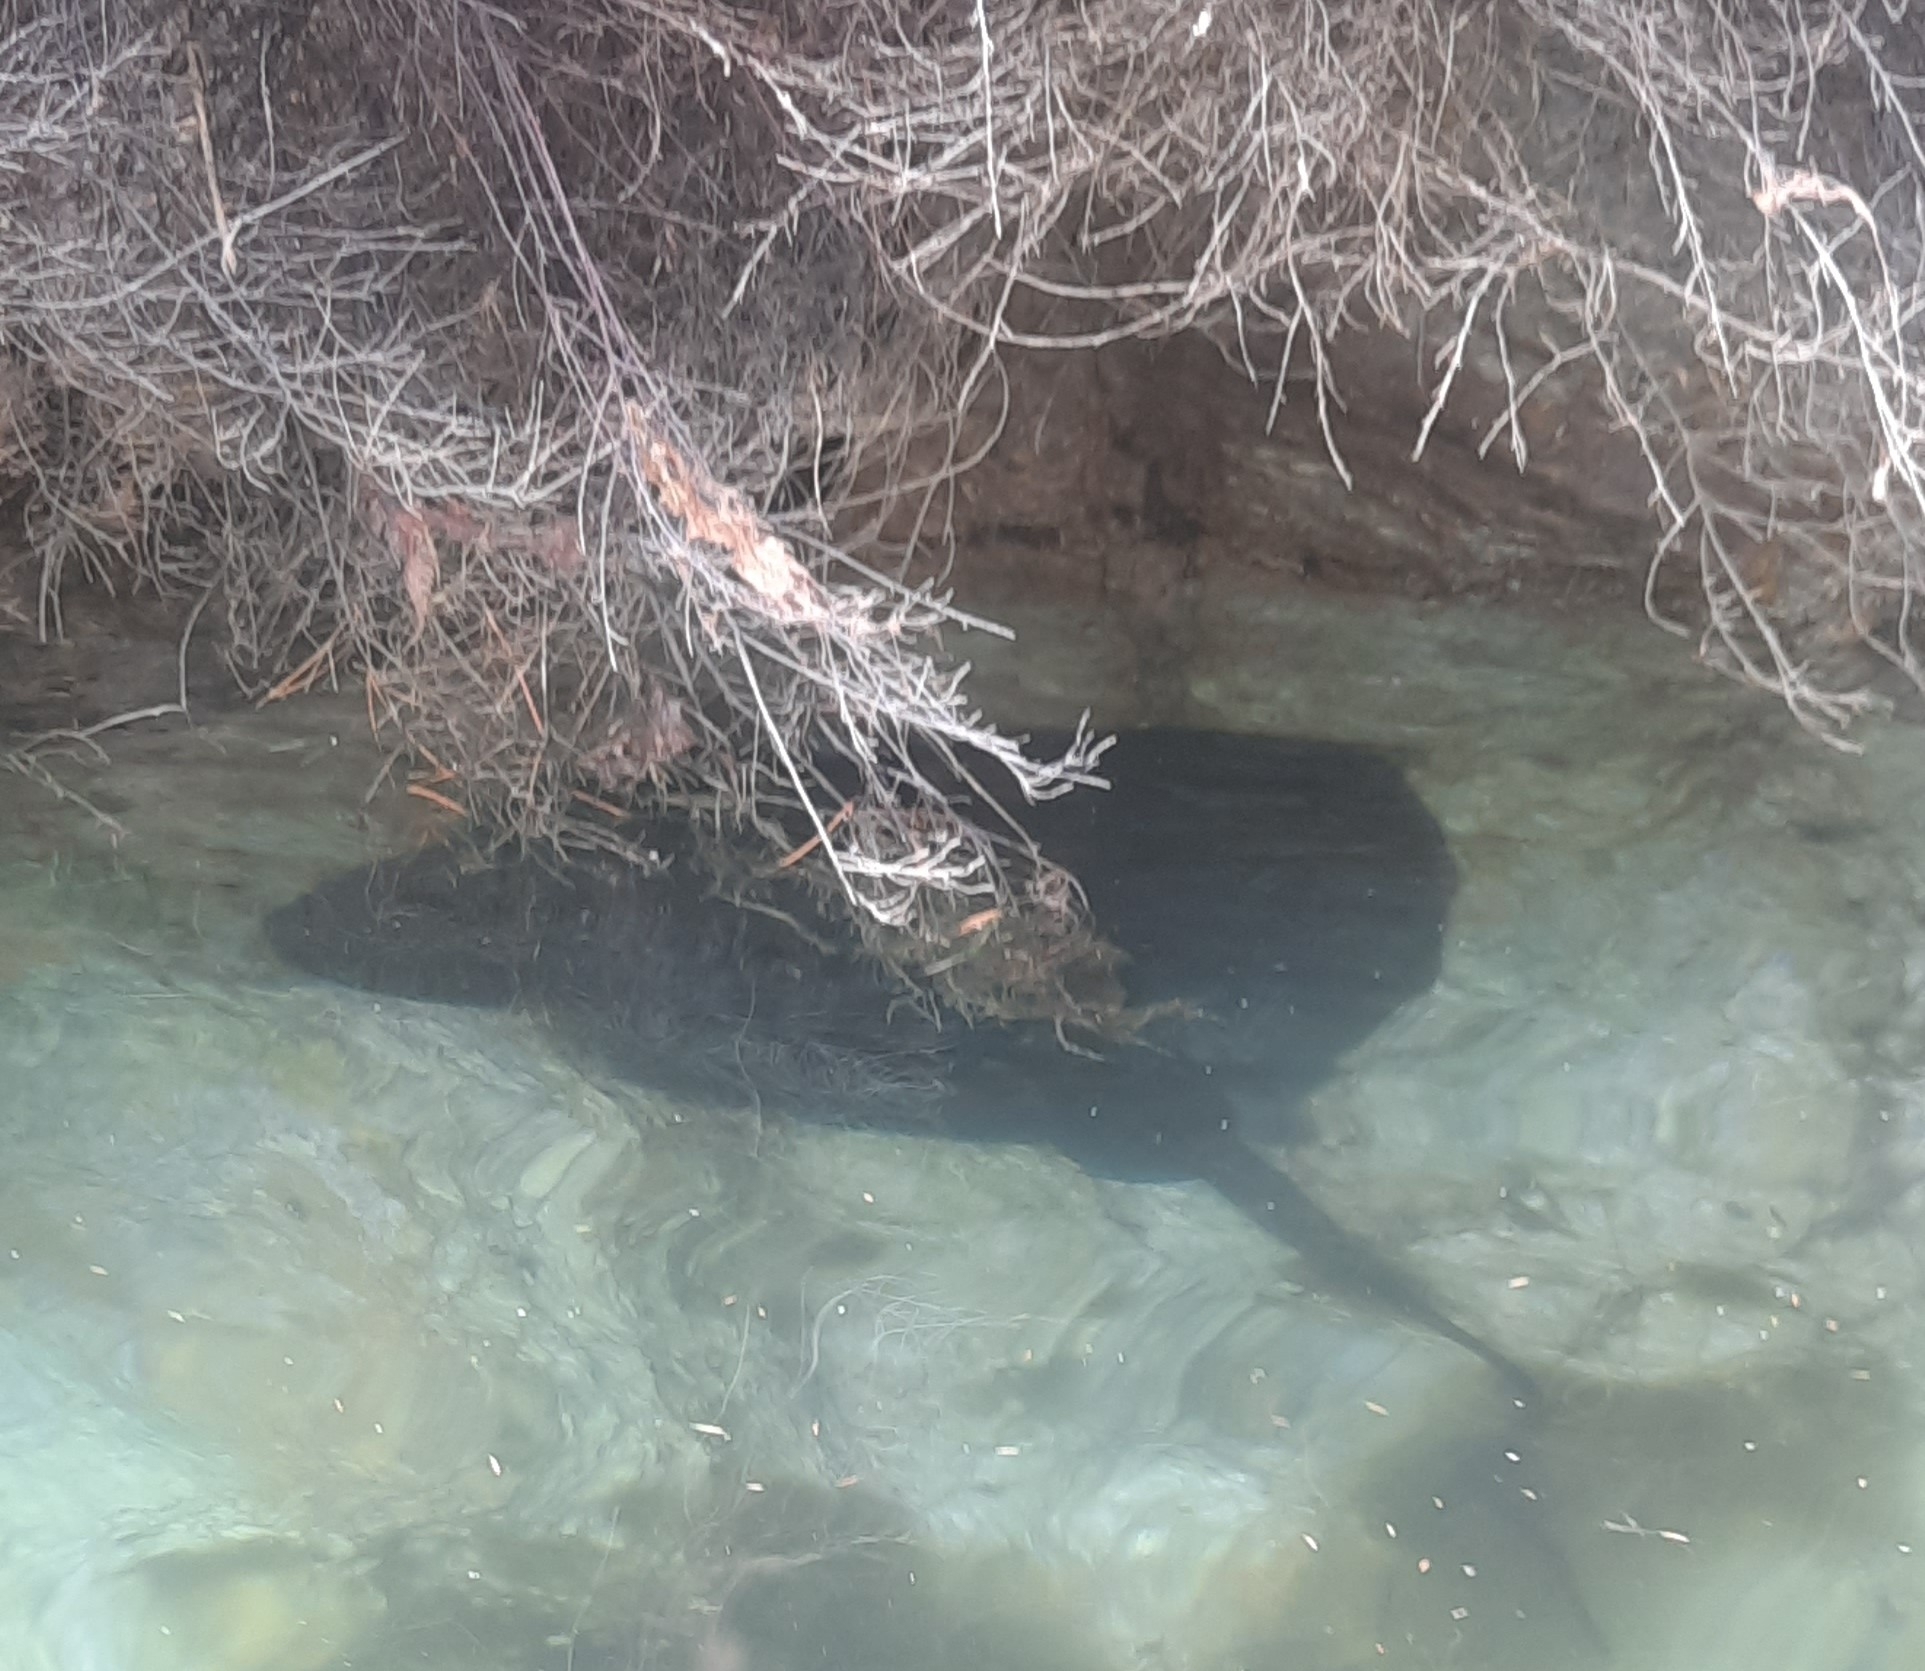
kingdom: Animalia
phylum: Chordata
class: Elasmobranchii
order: Myliobatiformes
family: Dasyatidae
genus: Bathytoshia
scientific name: Bathytoshia brevicaudata
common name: Short-tail stingray
